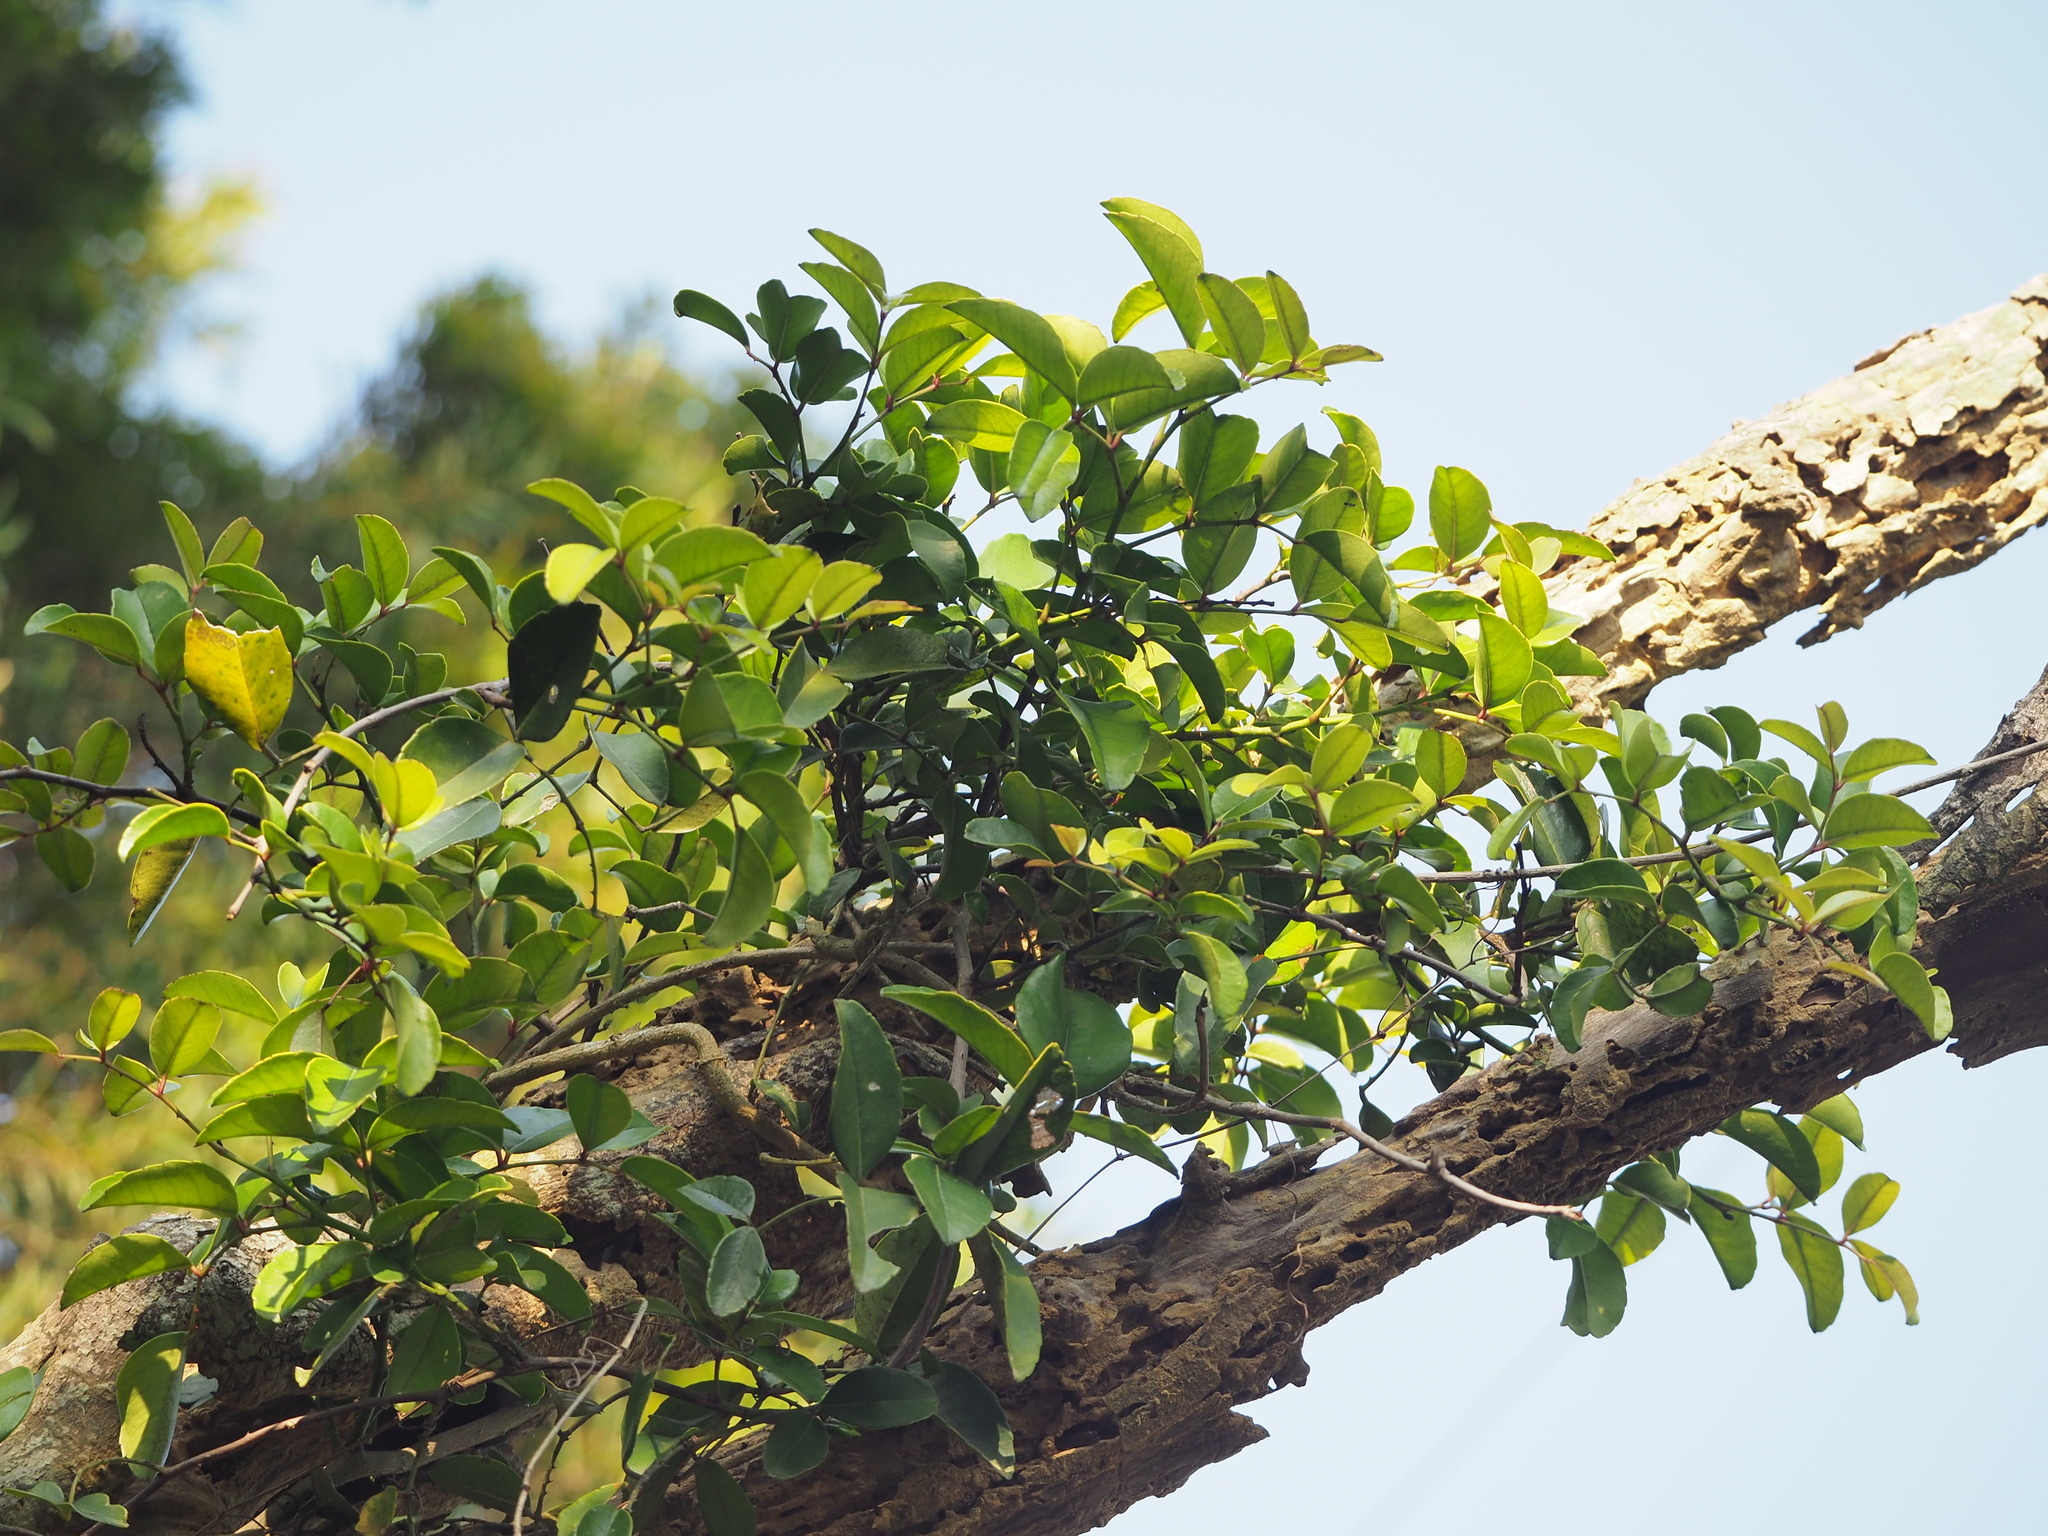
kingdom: Plantae
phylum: Tracheophyta
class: Magnoliopsida
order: Sapindales
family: Rutaceae
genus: Zanthoxylum
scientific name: Zanthoxylum nitidum
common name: Shiny-leaf prickly-ash
